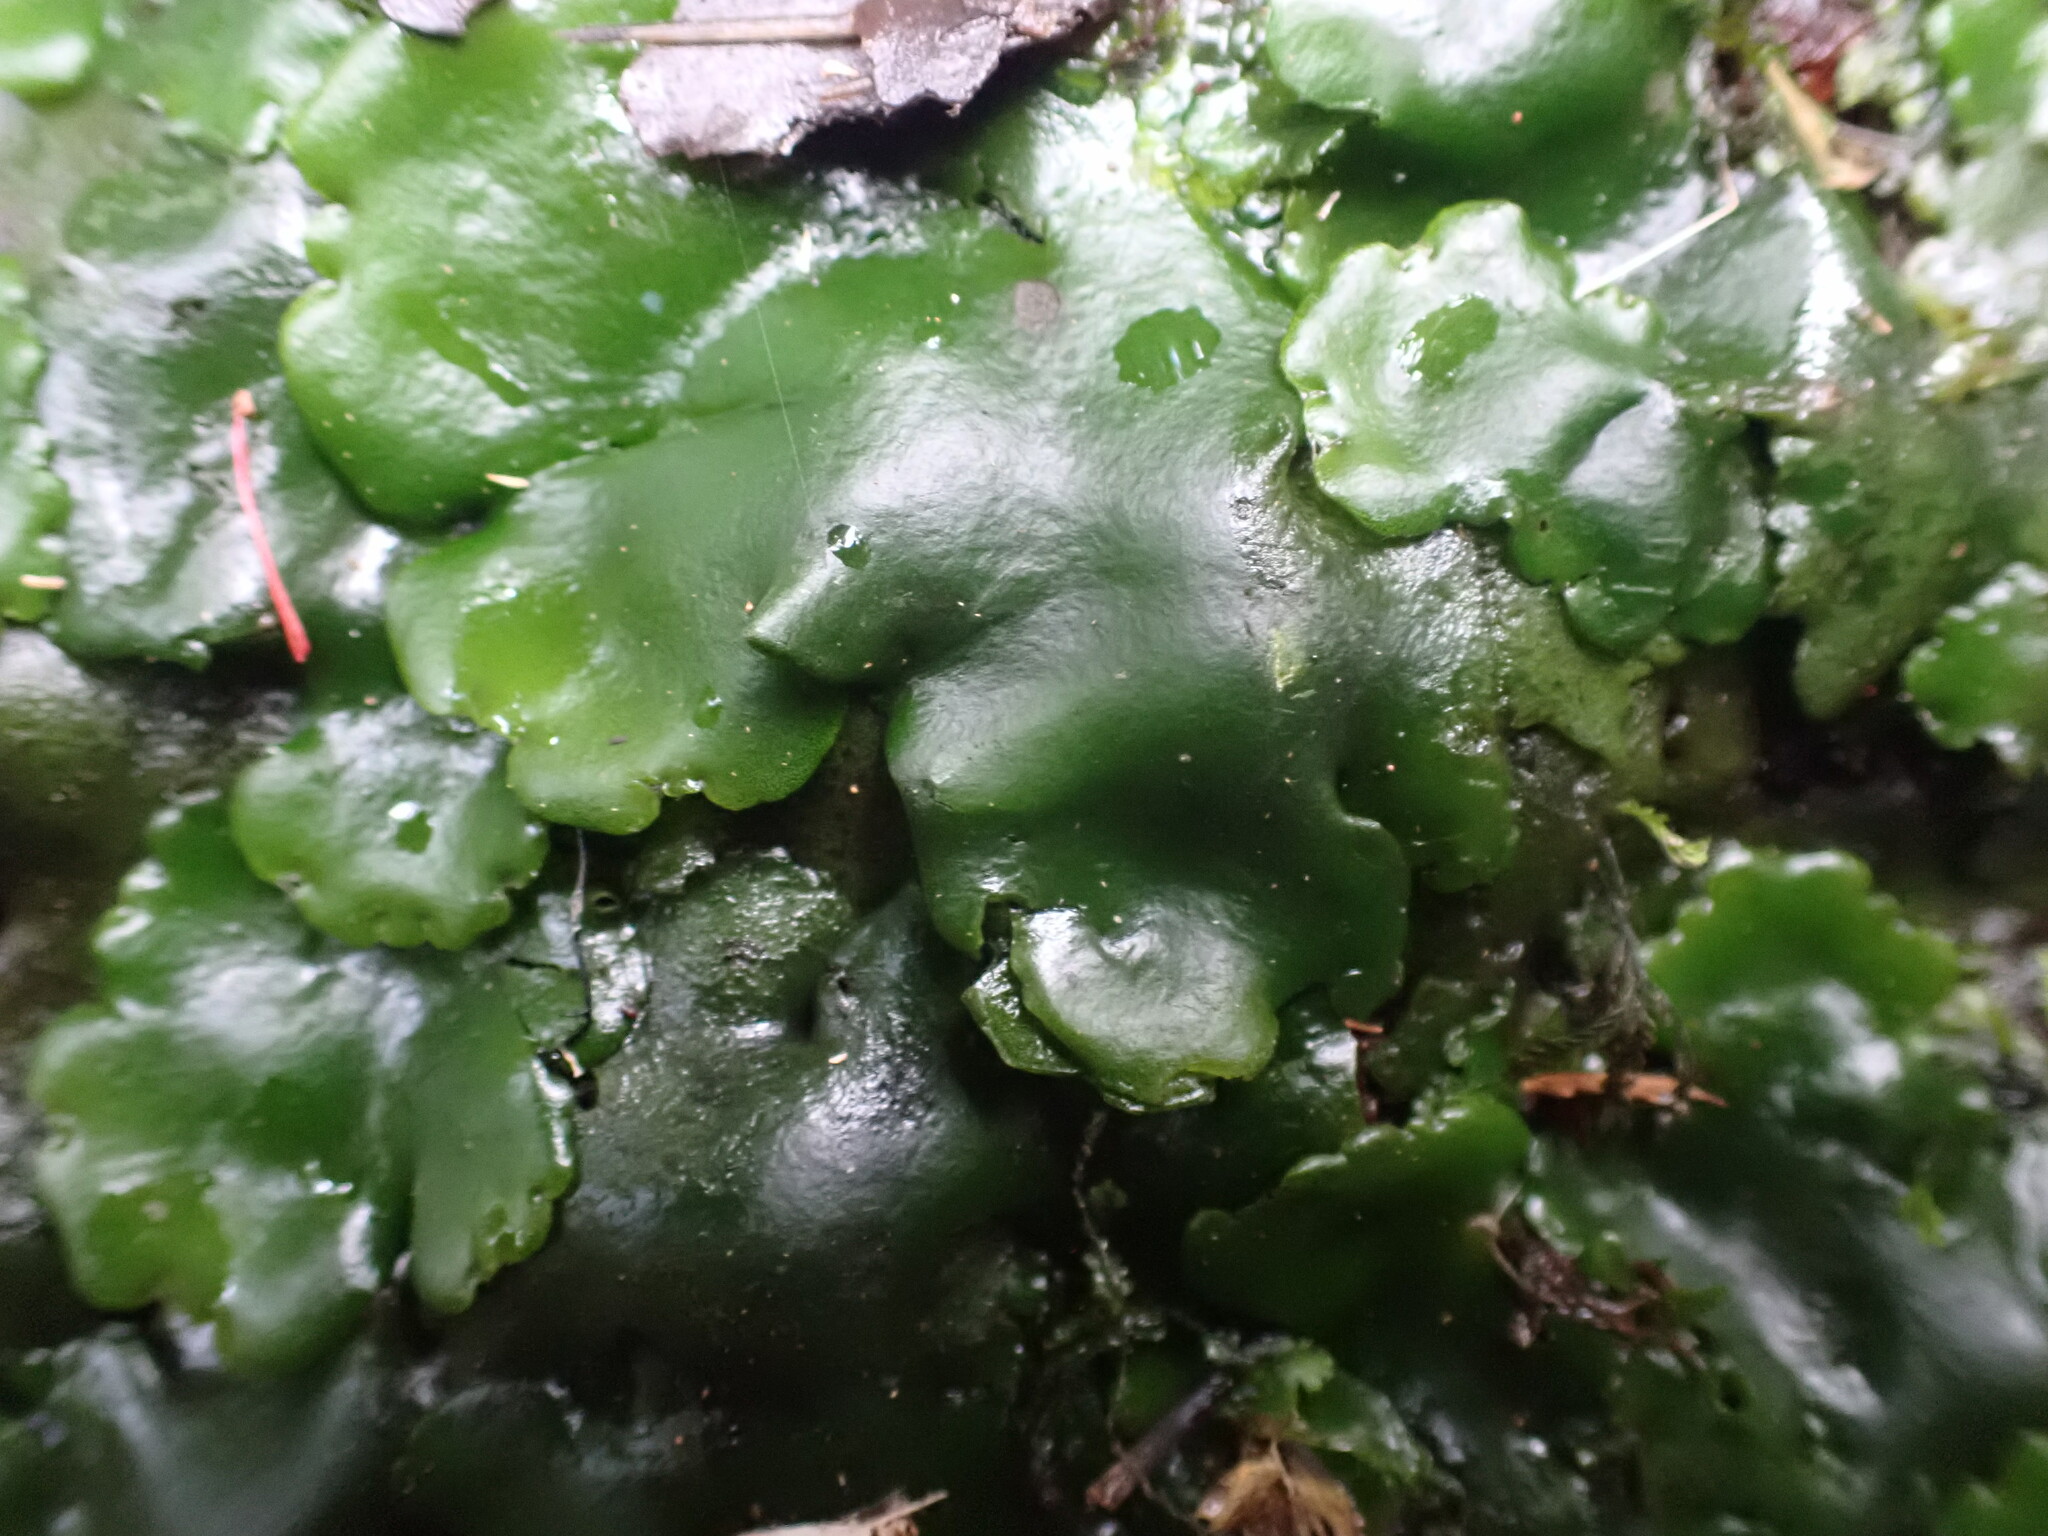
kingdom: Plantae
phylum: Marchantiophyta
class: Marchantiopsida
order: Marchantiales
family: Monocleaceae
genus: Monoclea
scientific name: Monoclea forsteri
